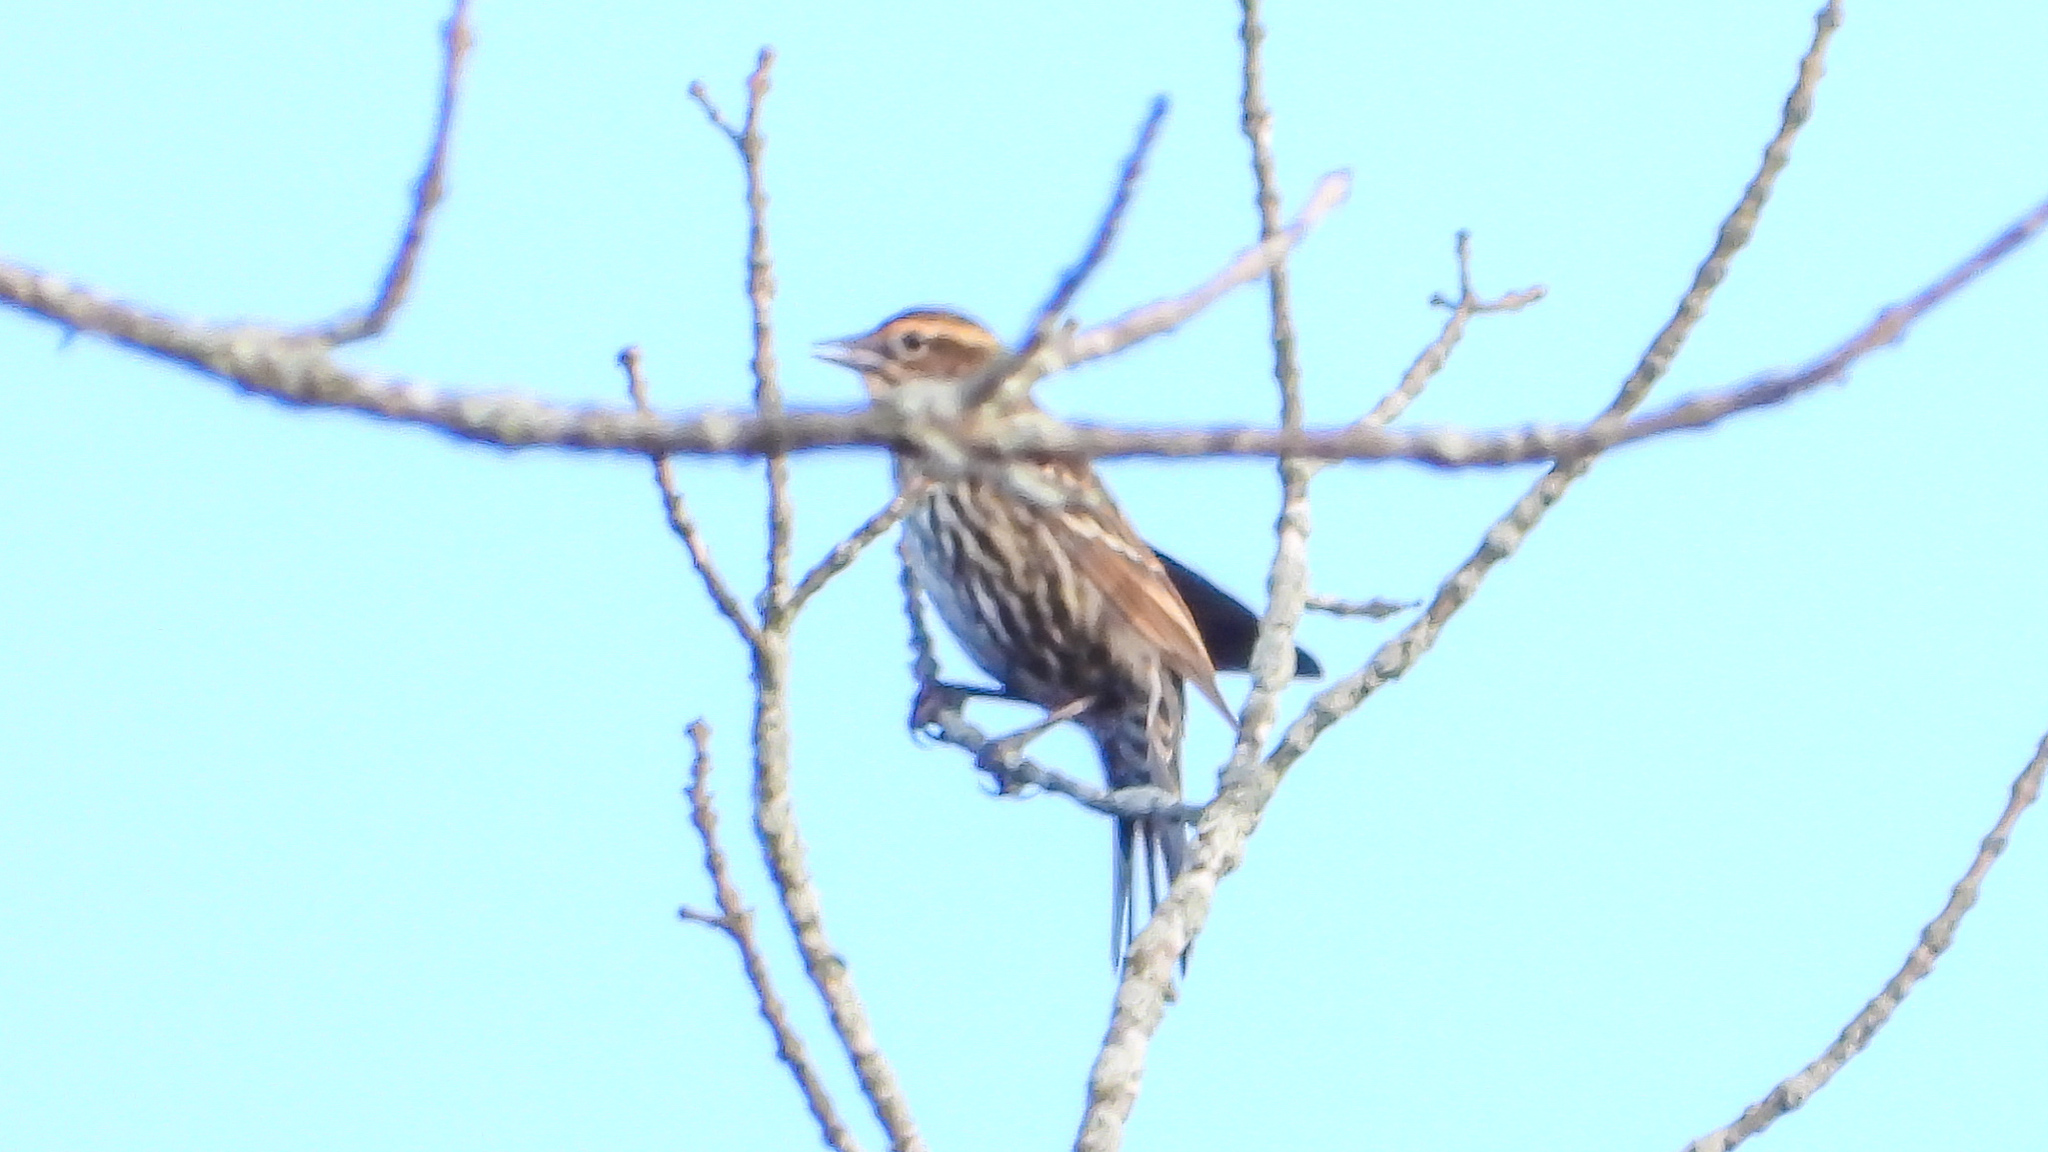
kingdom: Animalia
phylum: Chordata
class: Aves
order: Passeriformes
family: Icteridae
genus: Agelaius
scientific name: Agelaius phoeniceus
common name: Red-winged blackbird
